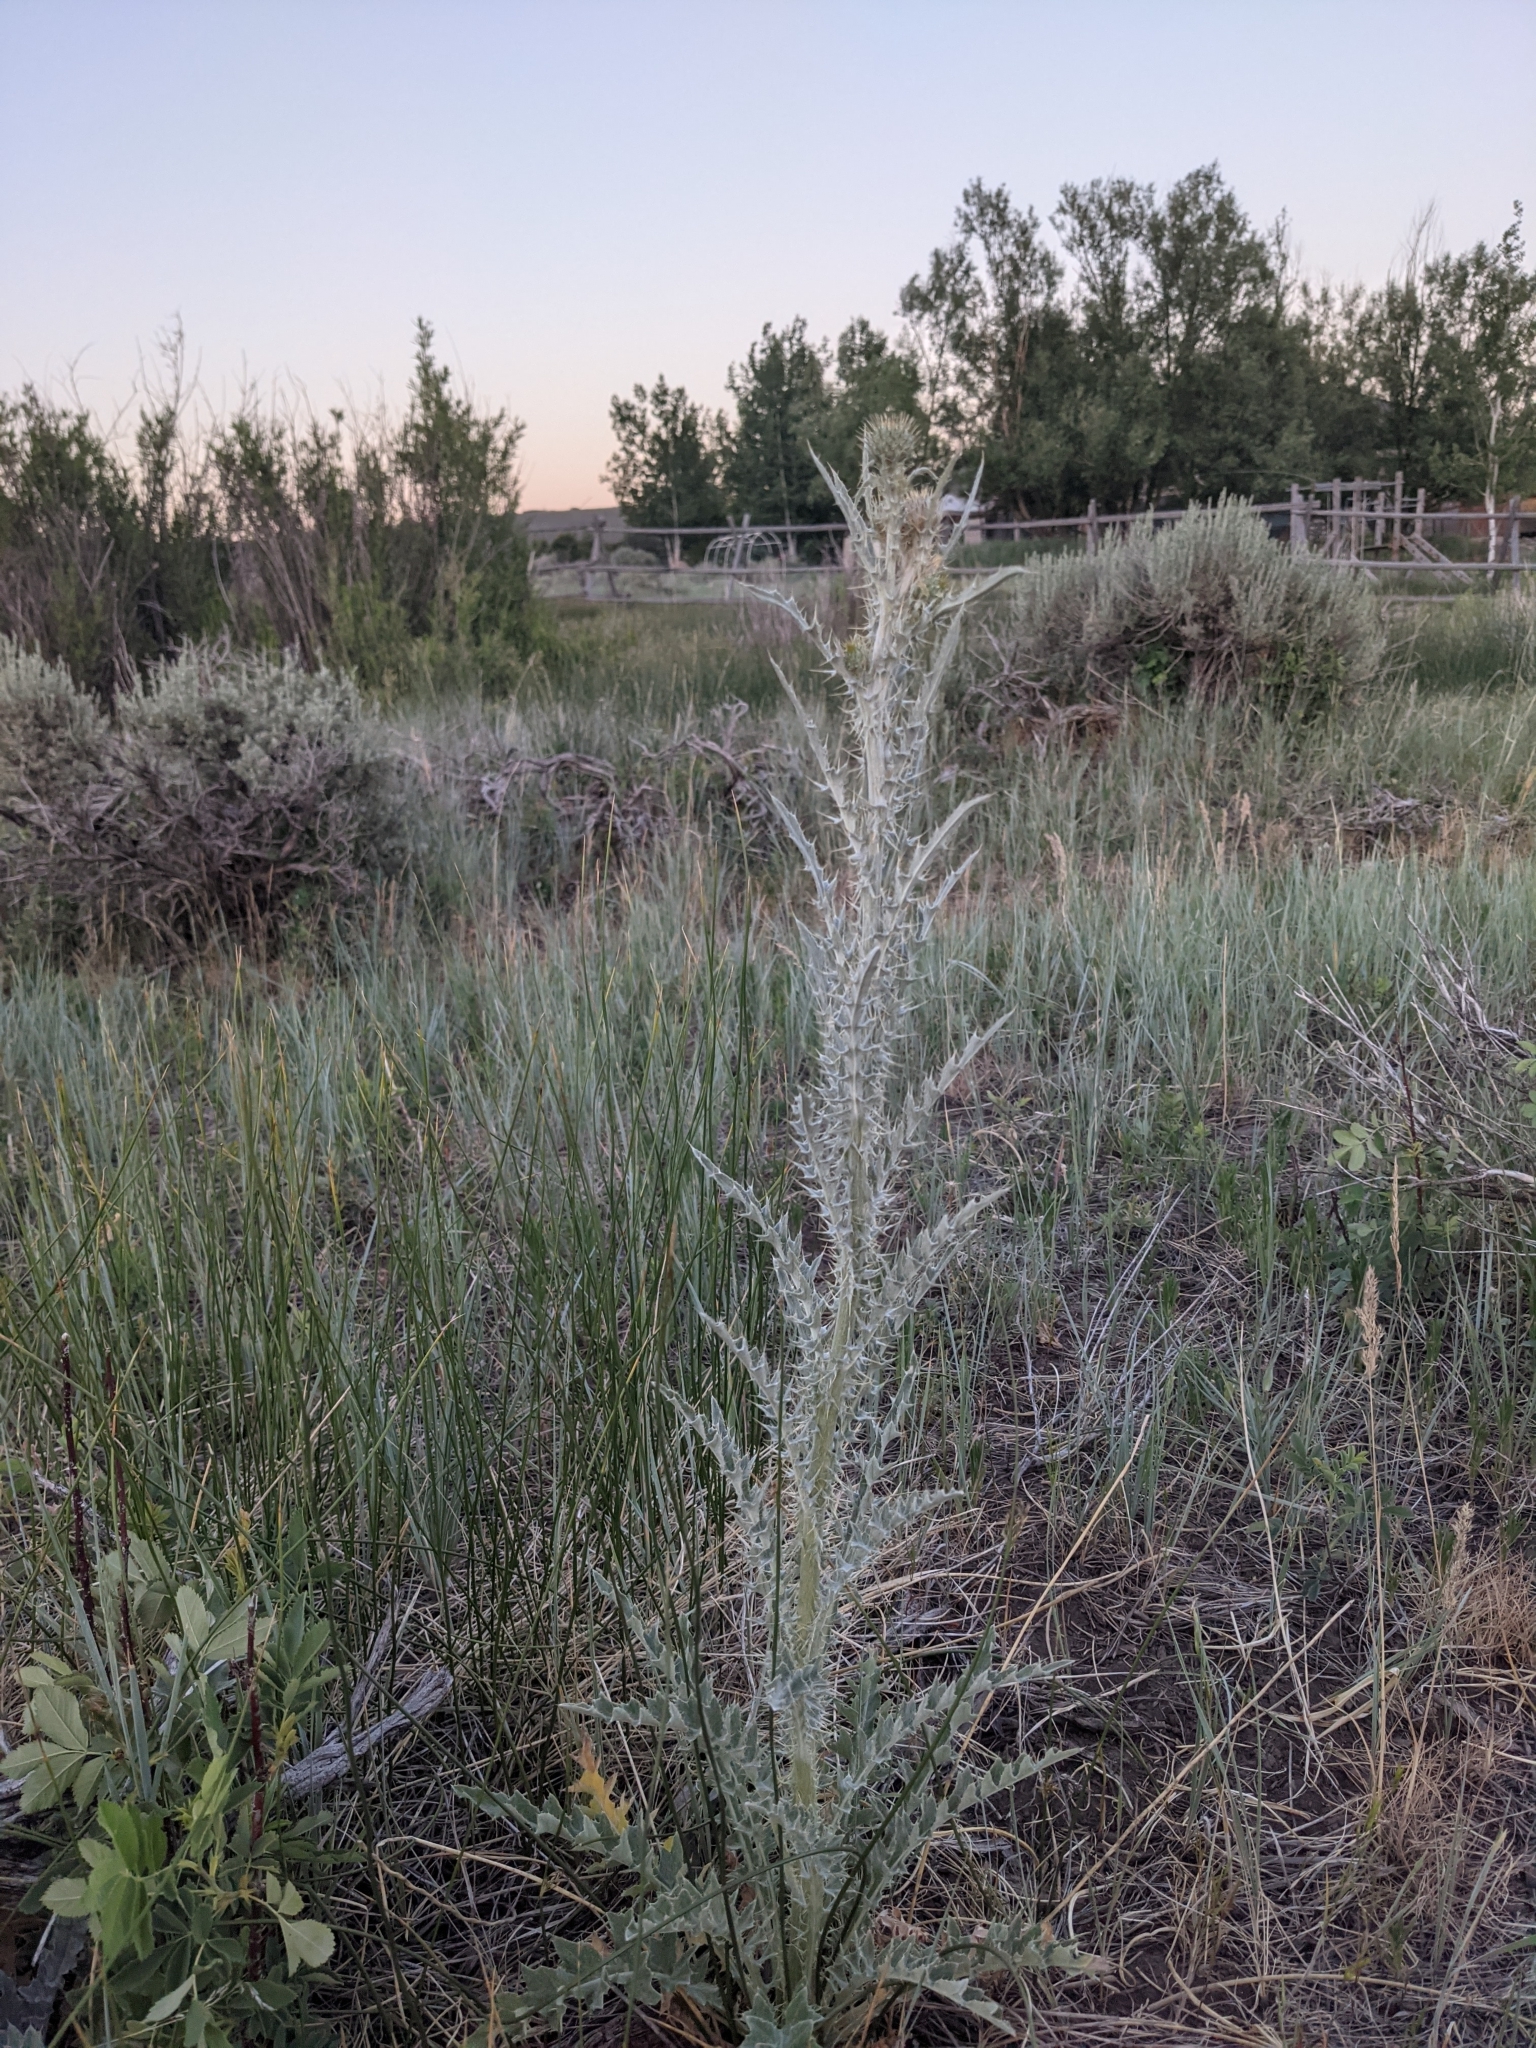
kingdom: Plantae
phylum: Tracheophyta
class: Magnoliopsida
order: Asterales
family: Asteraceae
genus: Cirsium
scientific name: Cirsium neomexicanum
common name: New mexico thistle
